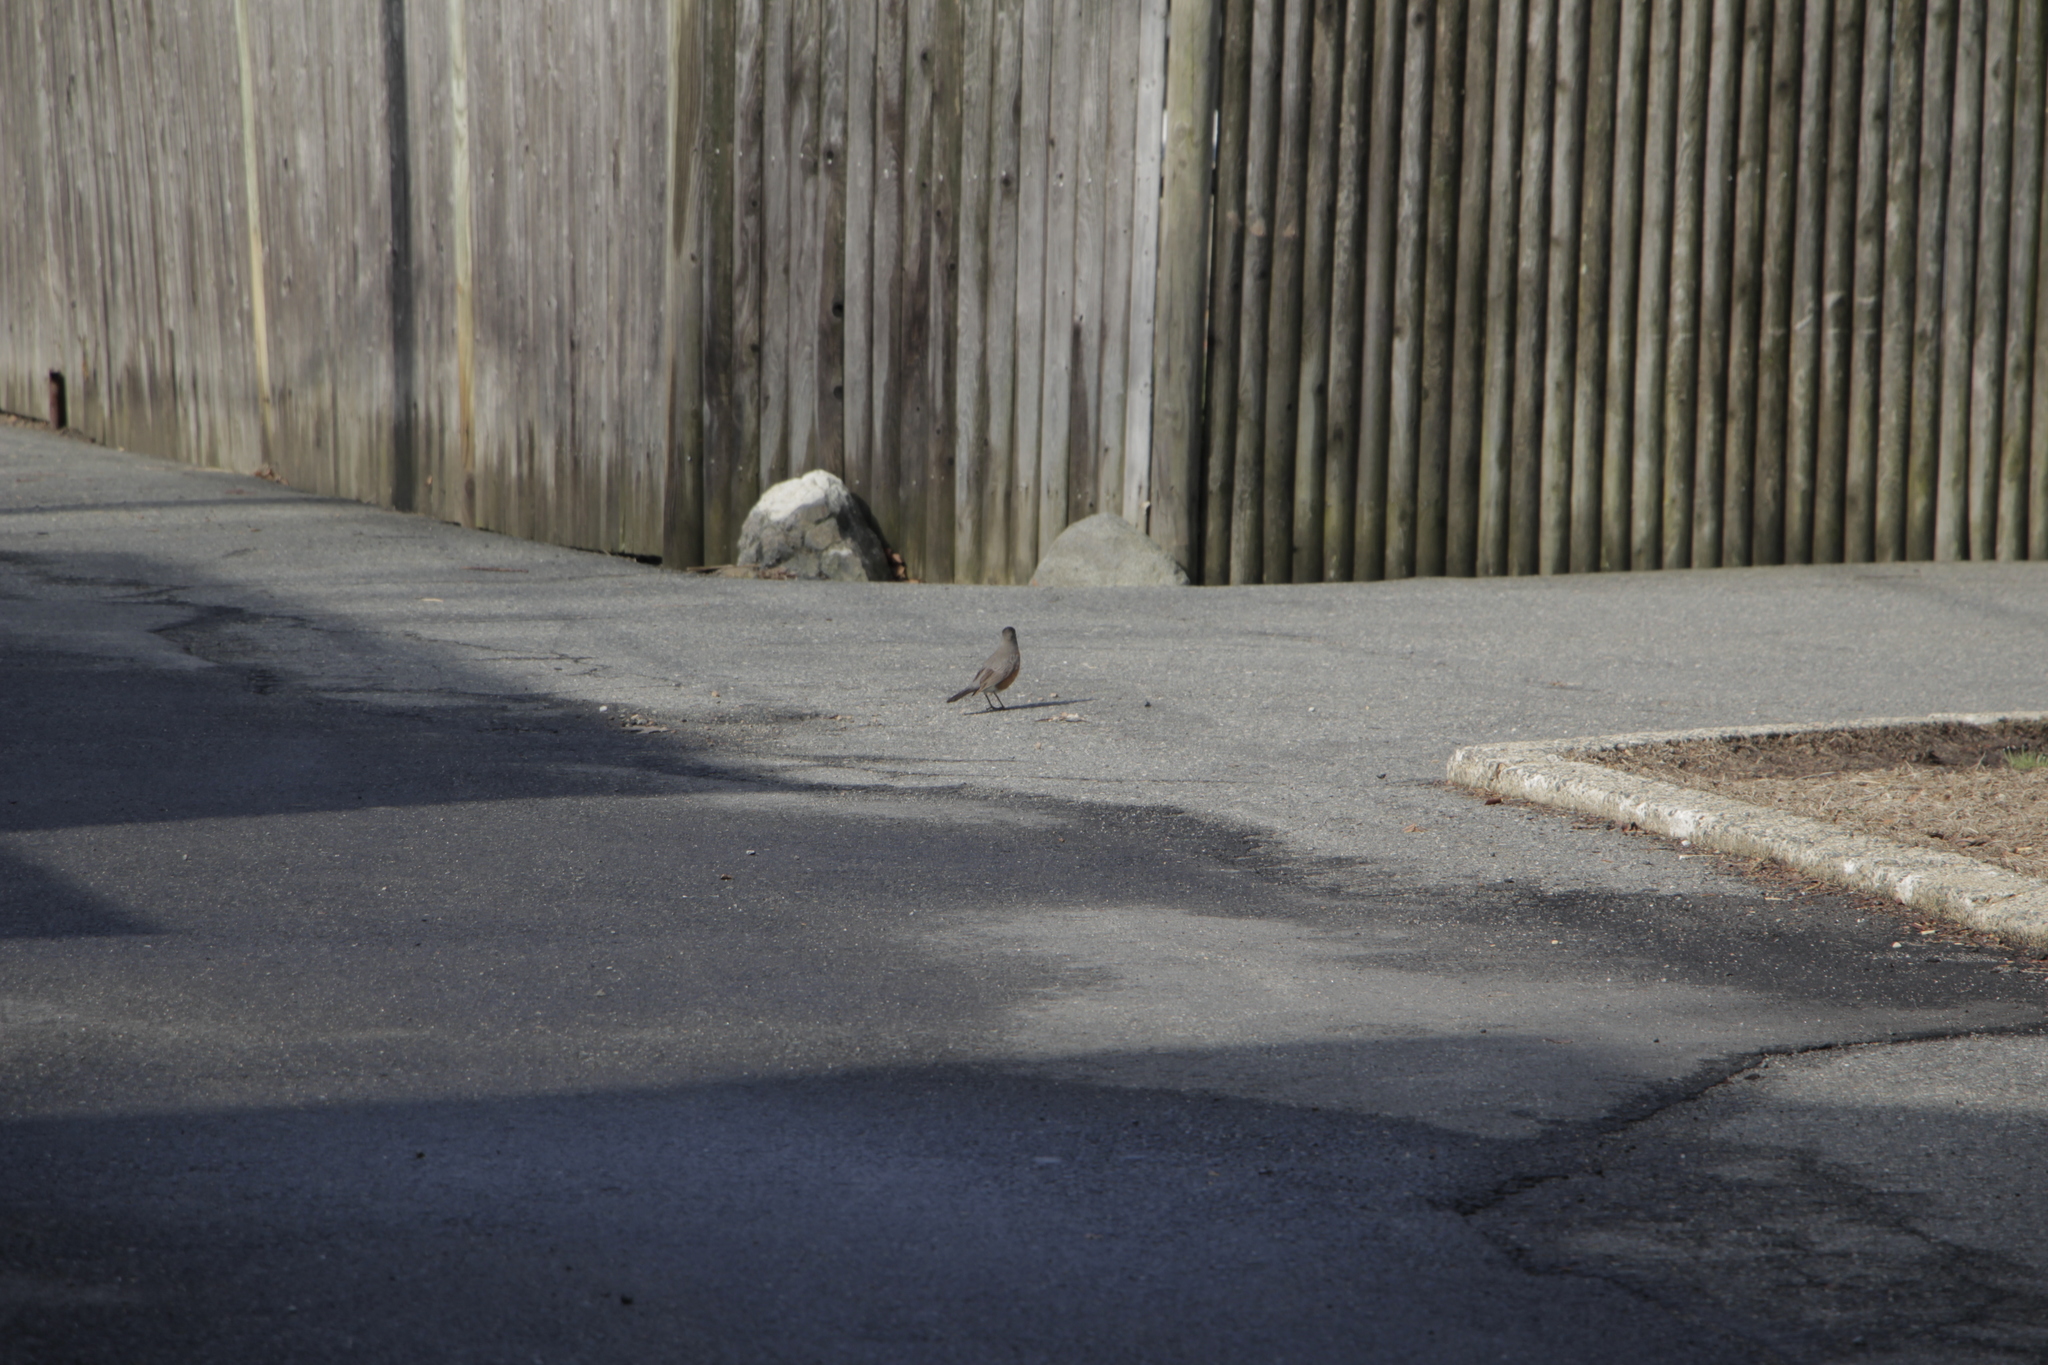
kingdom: Animalia
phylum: Chordata
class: Aves
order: Passeriformes
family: Turdidae
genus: Turdus
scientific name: Turdus migratorius
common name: American robin
